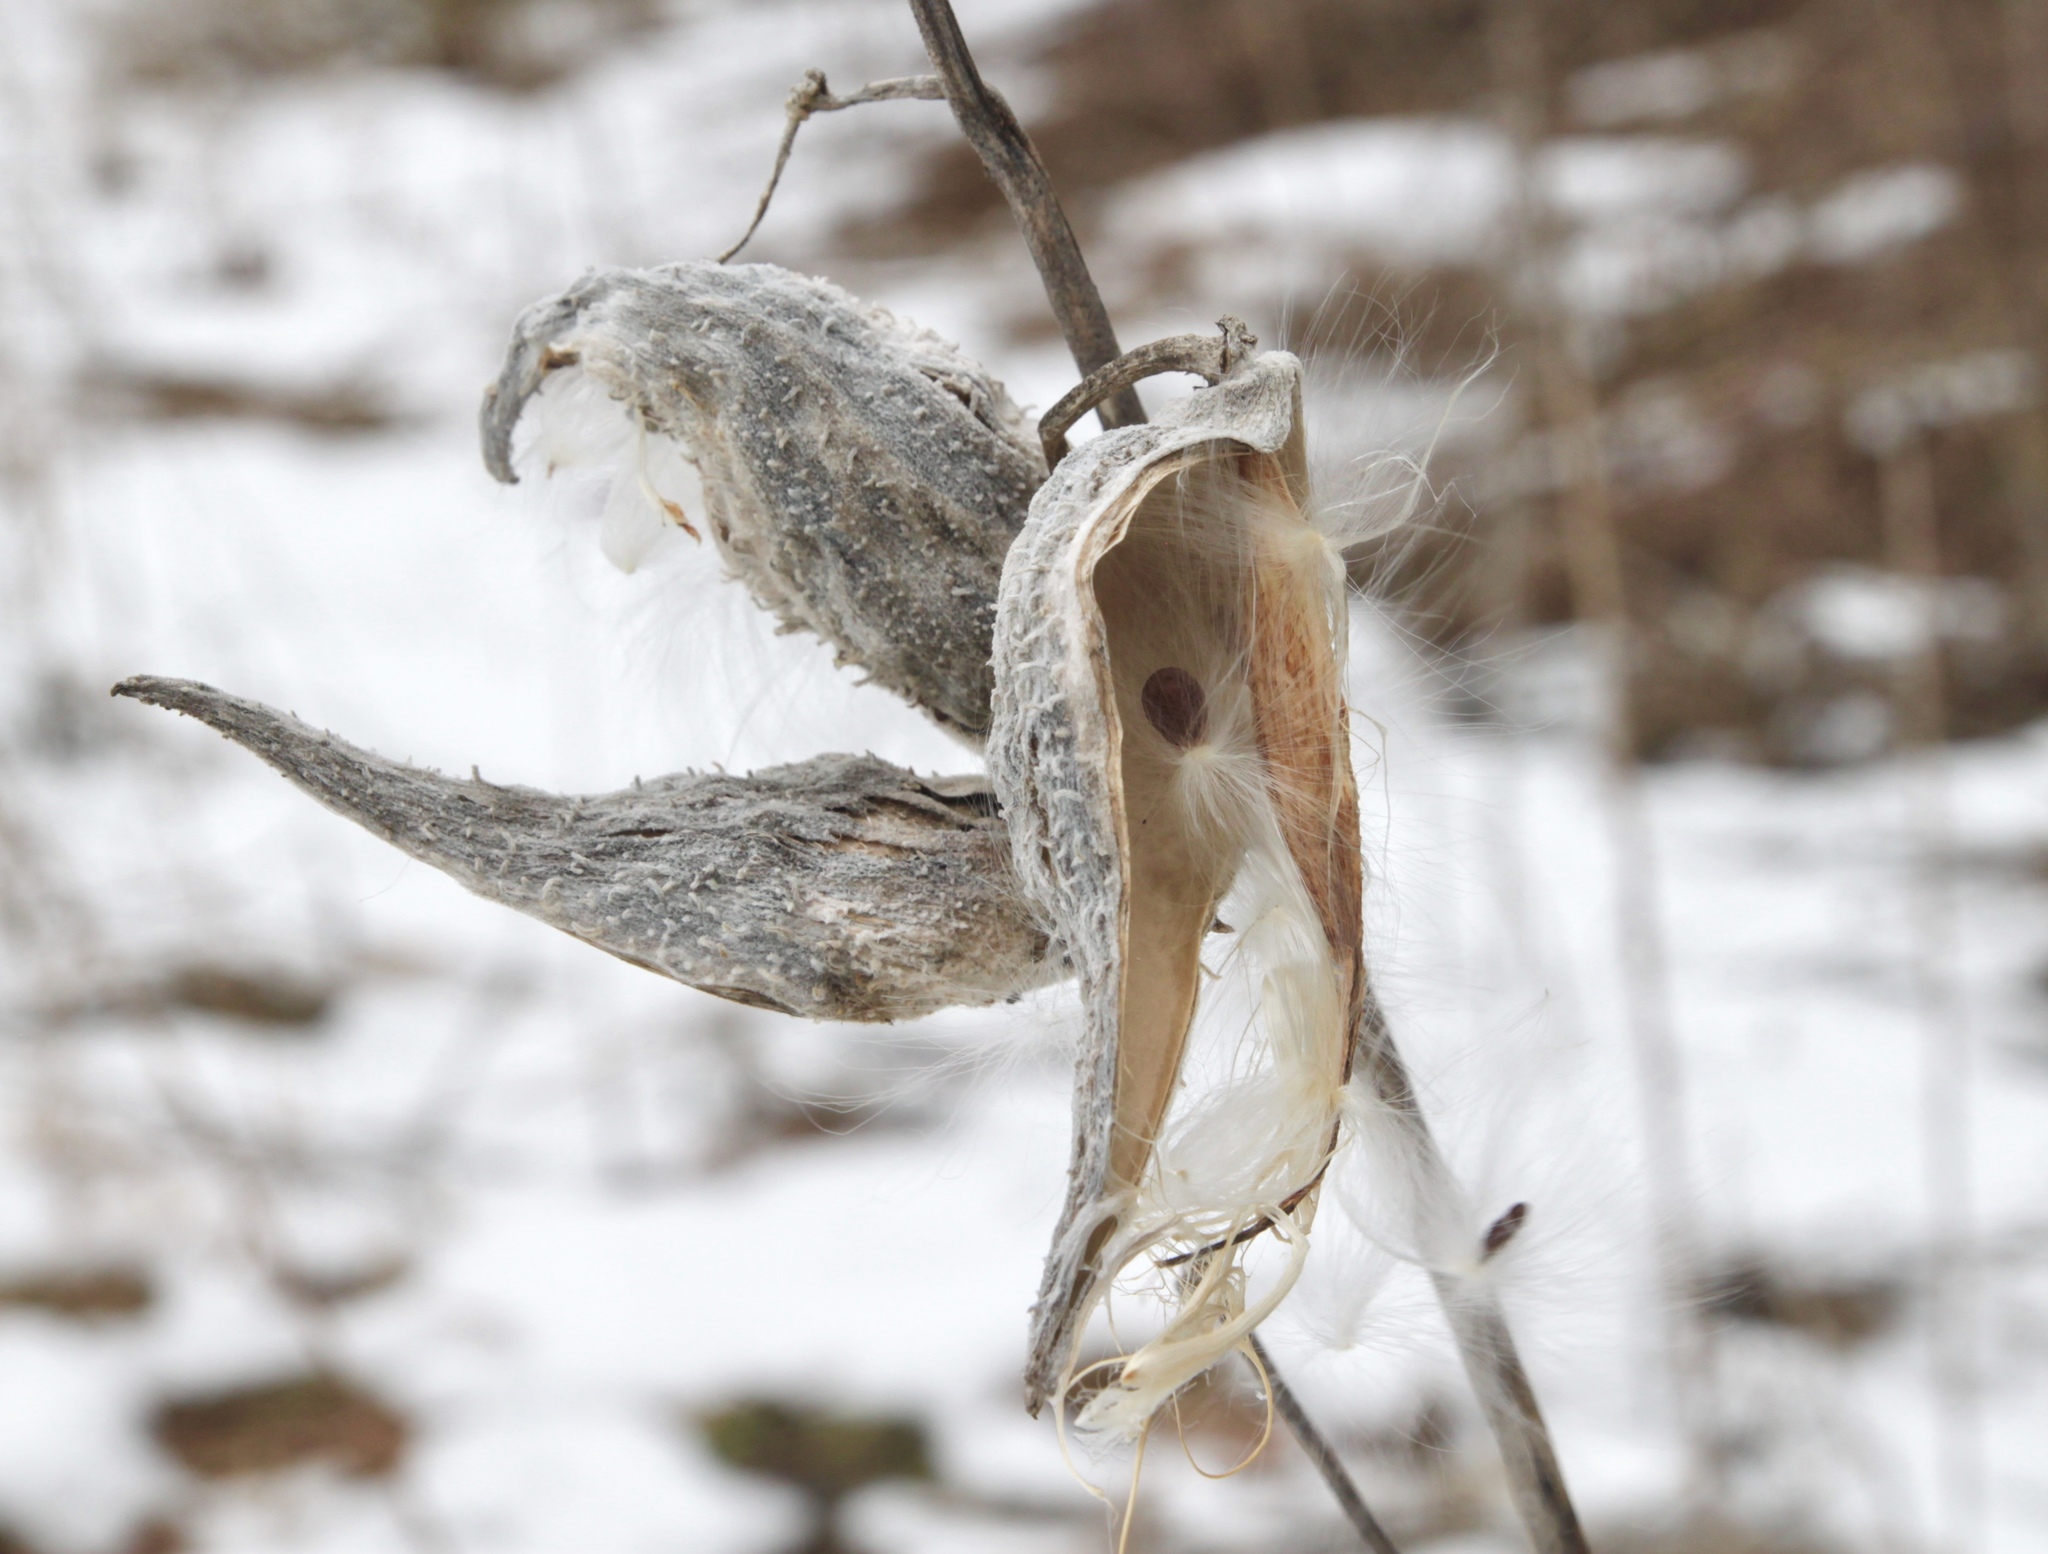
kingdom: Plantae
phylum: Tracheophyta
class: Magnoliopsida
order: Gentianales
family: Apocynaceae
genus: Asclepias
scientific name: Asclepias syriaca
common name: Common milkweed
